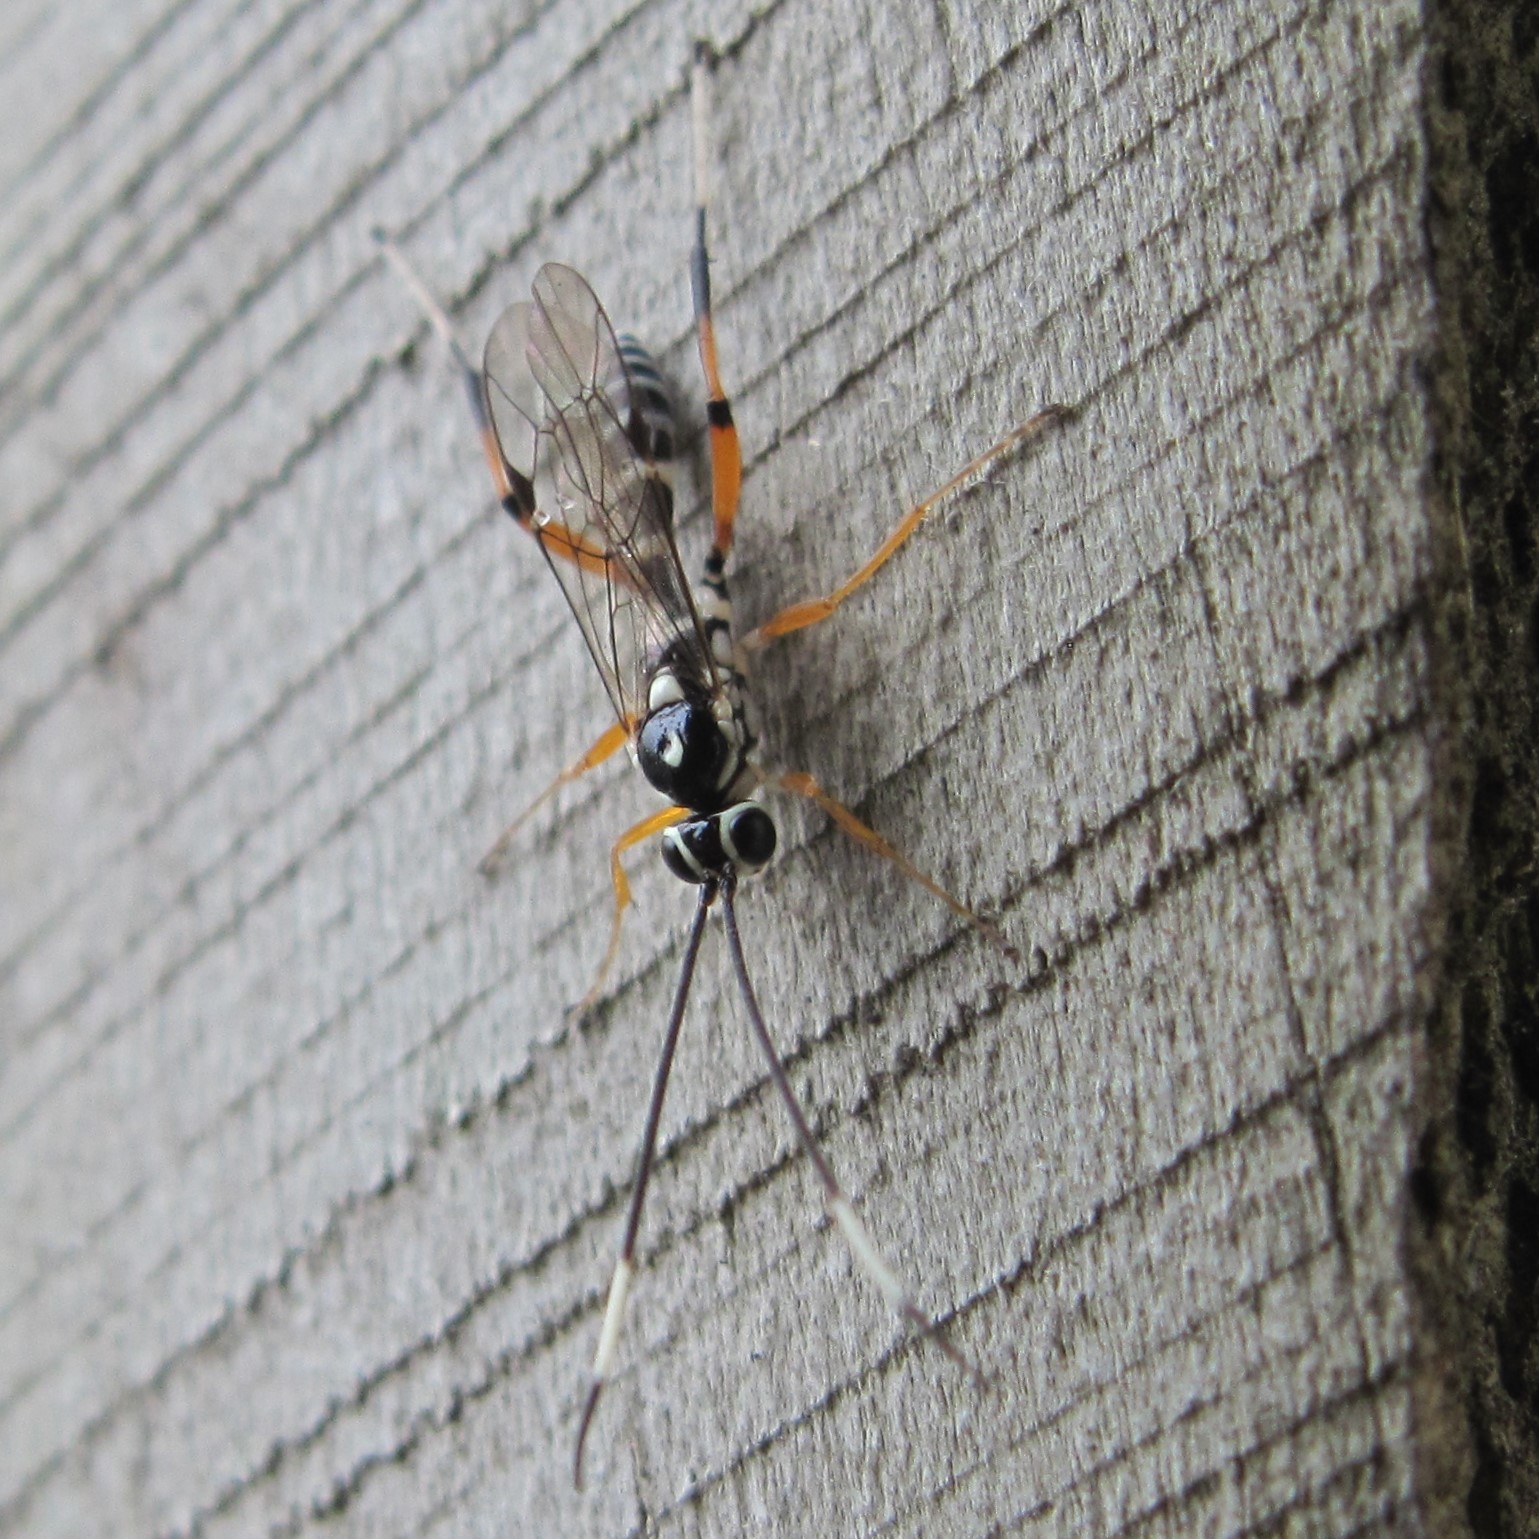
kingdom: Animalia
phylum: Arthropoda
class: Insecta
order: Hymenoptera
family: Ichneumonidae
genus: Glabridorsum
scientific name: Glabridorsum stokesii
